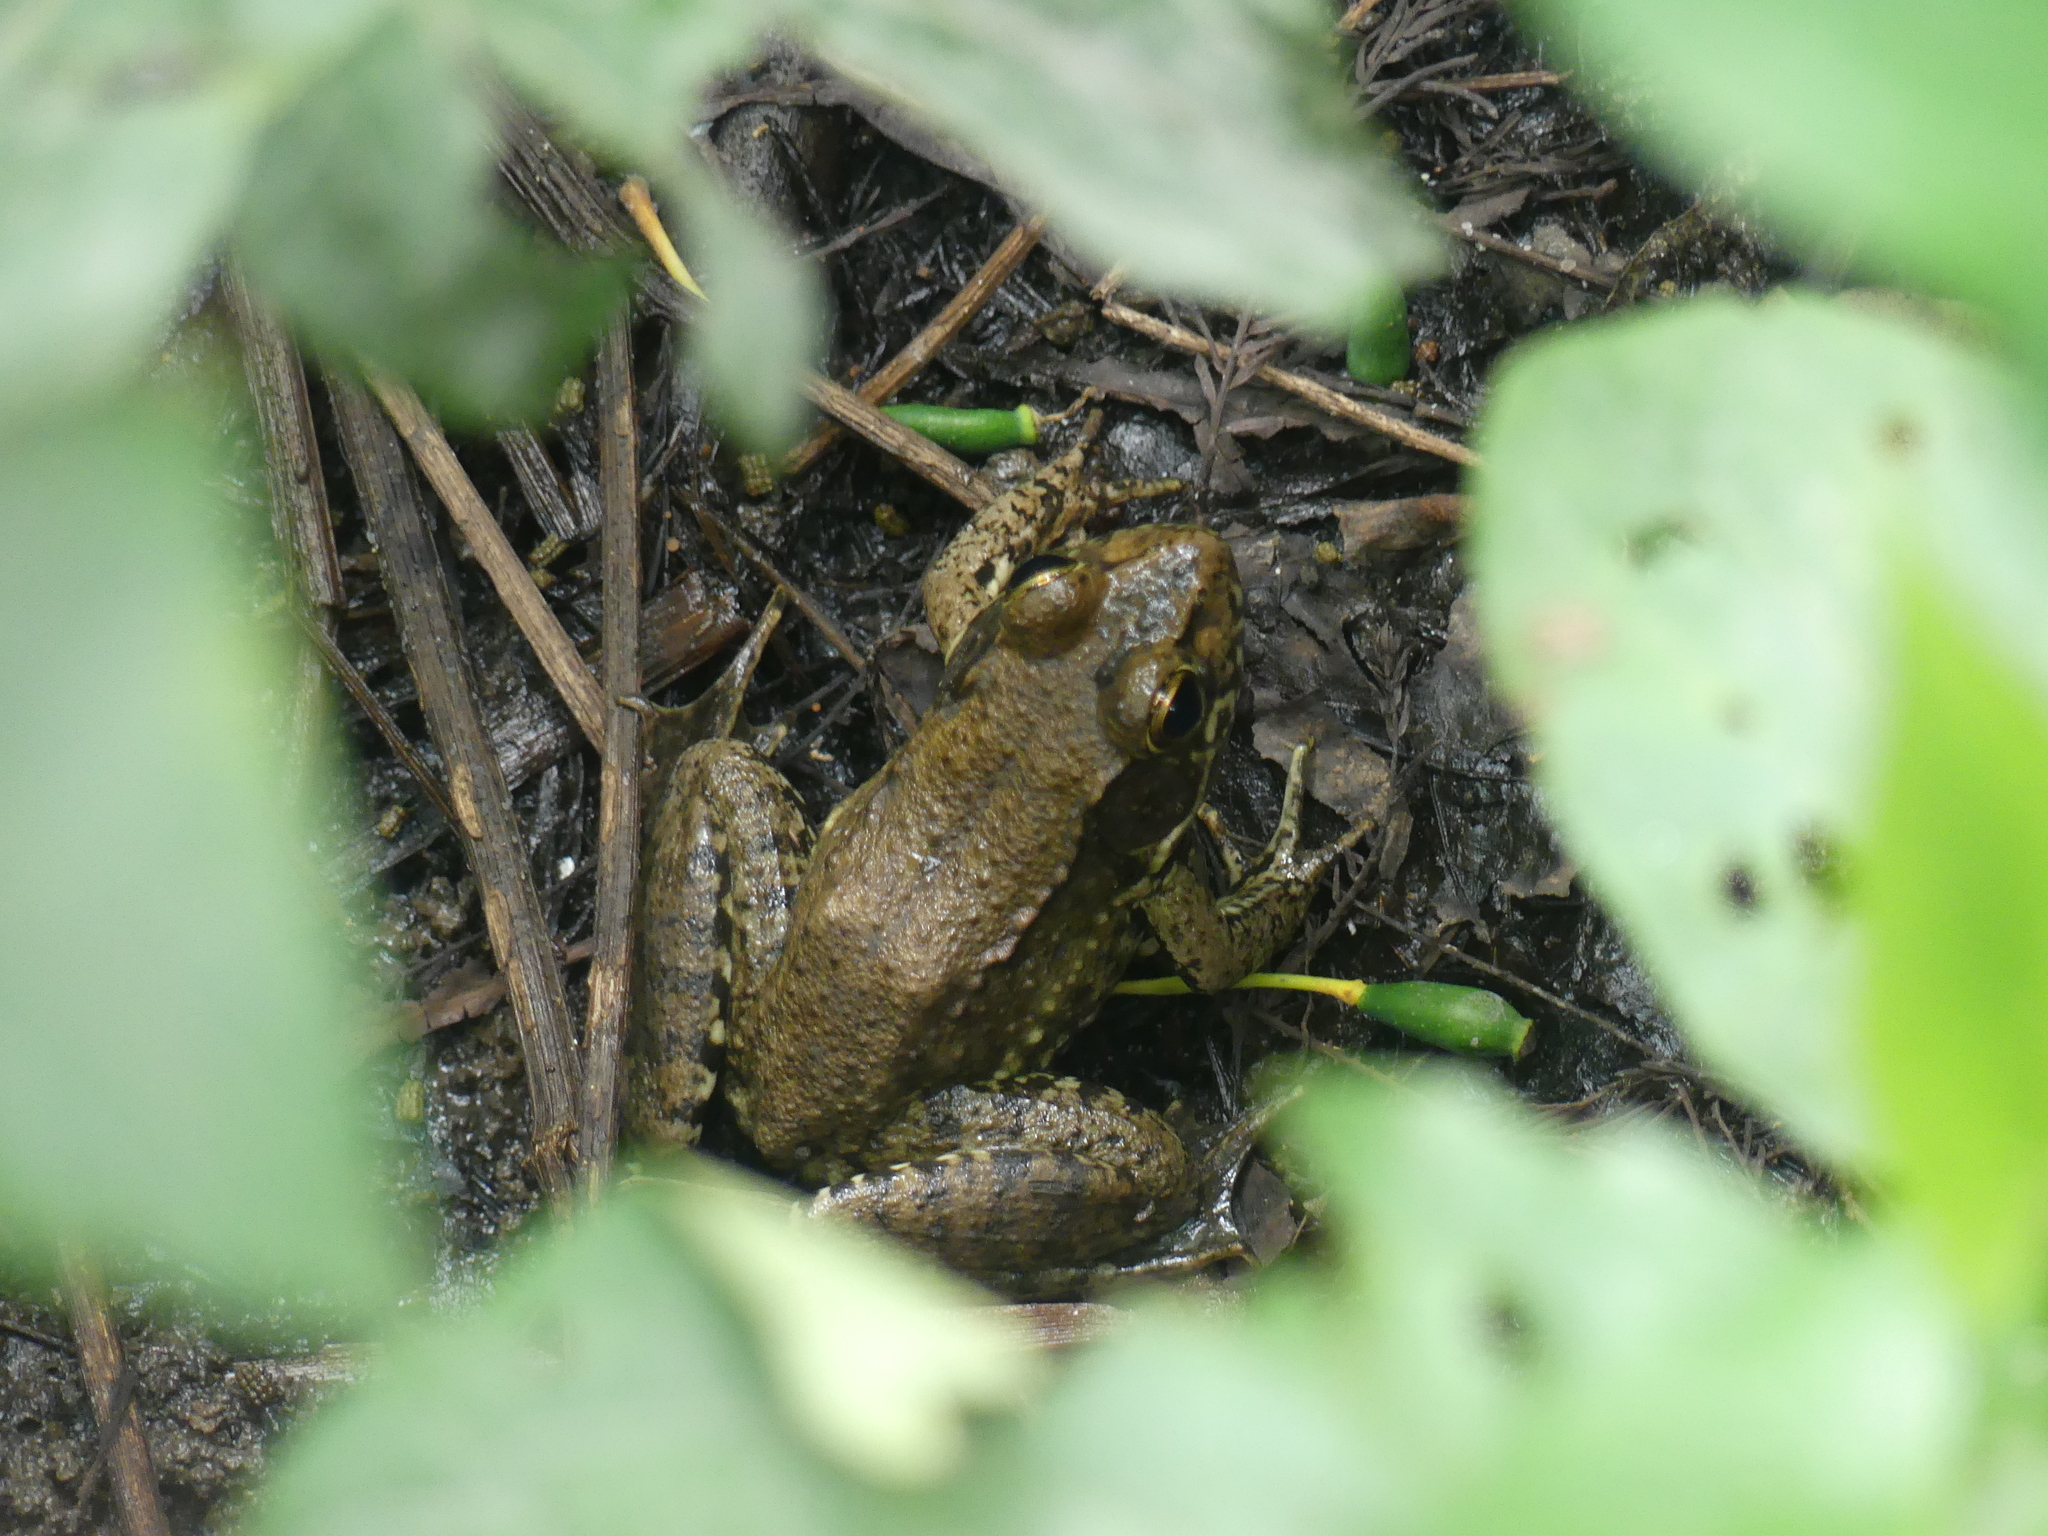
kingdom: Animalia
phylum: Chordata
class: Amphibia
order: Anura
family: Ranidae
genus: Lithobates
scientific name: Lithobates clamitans
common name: Green frog
